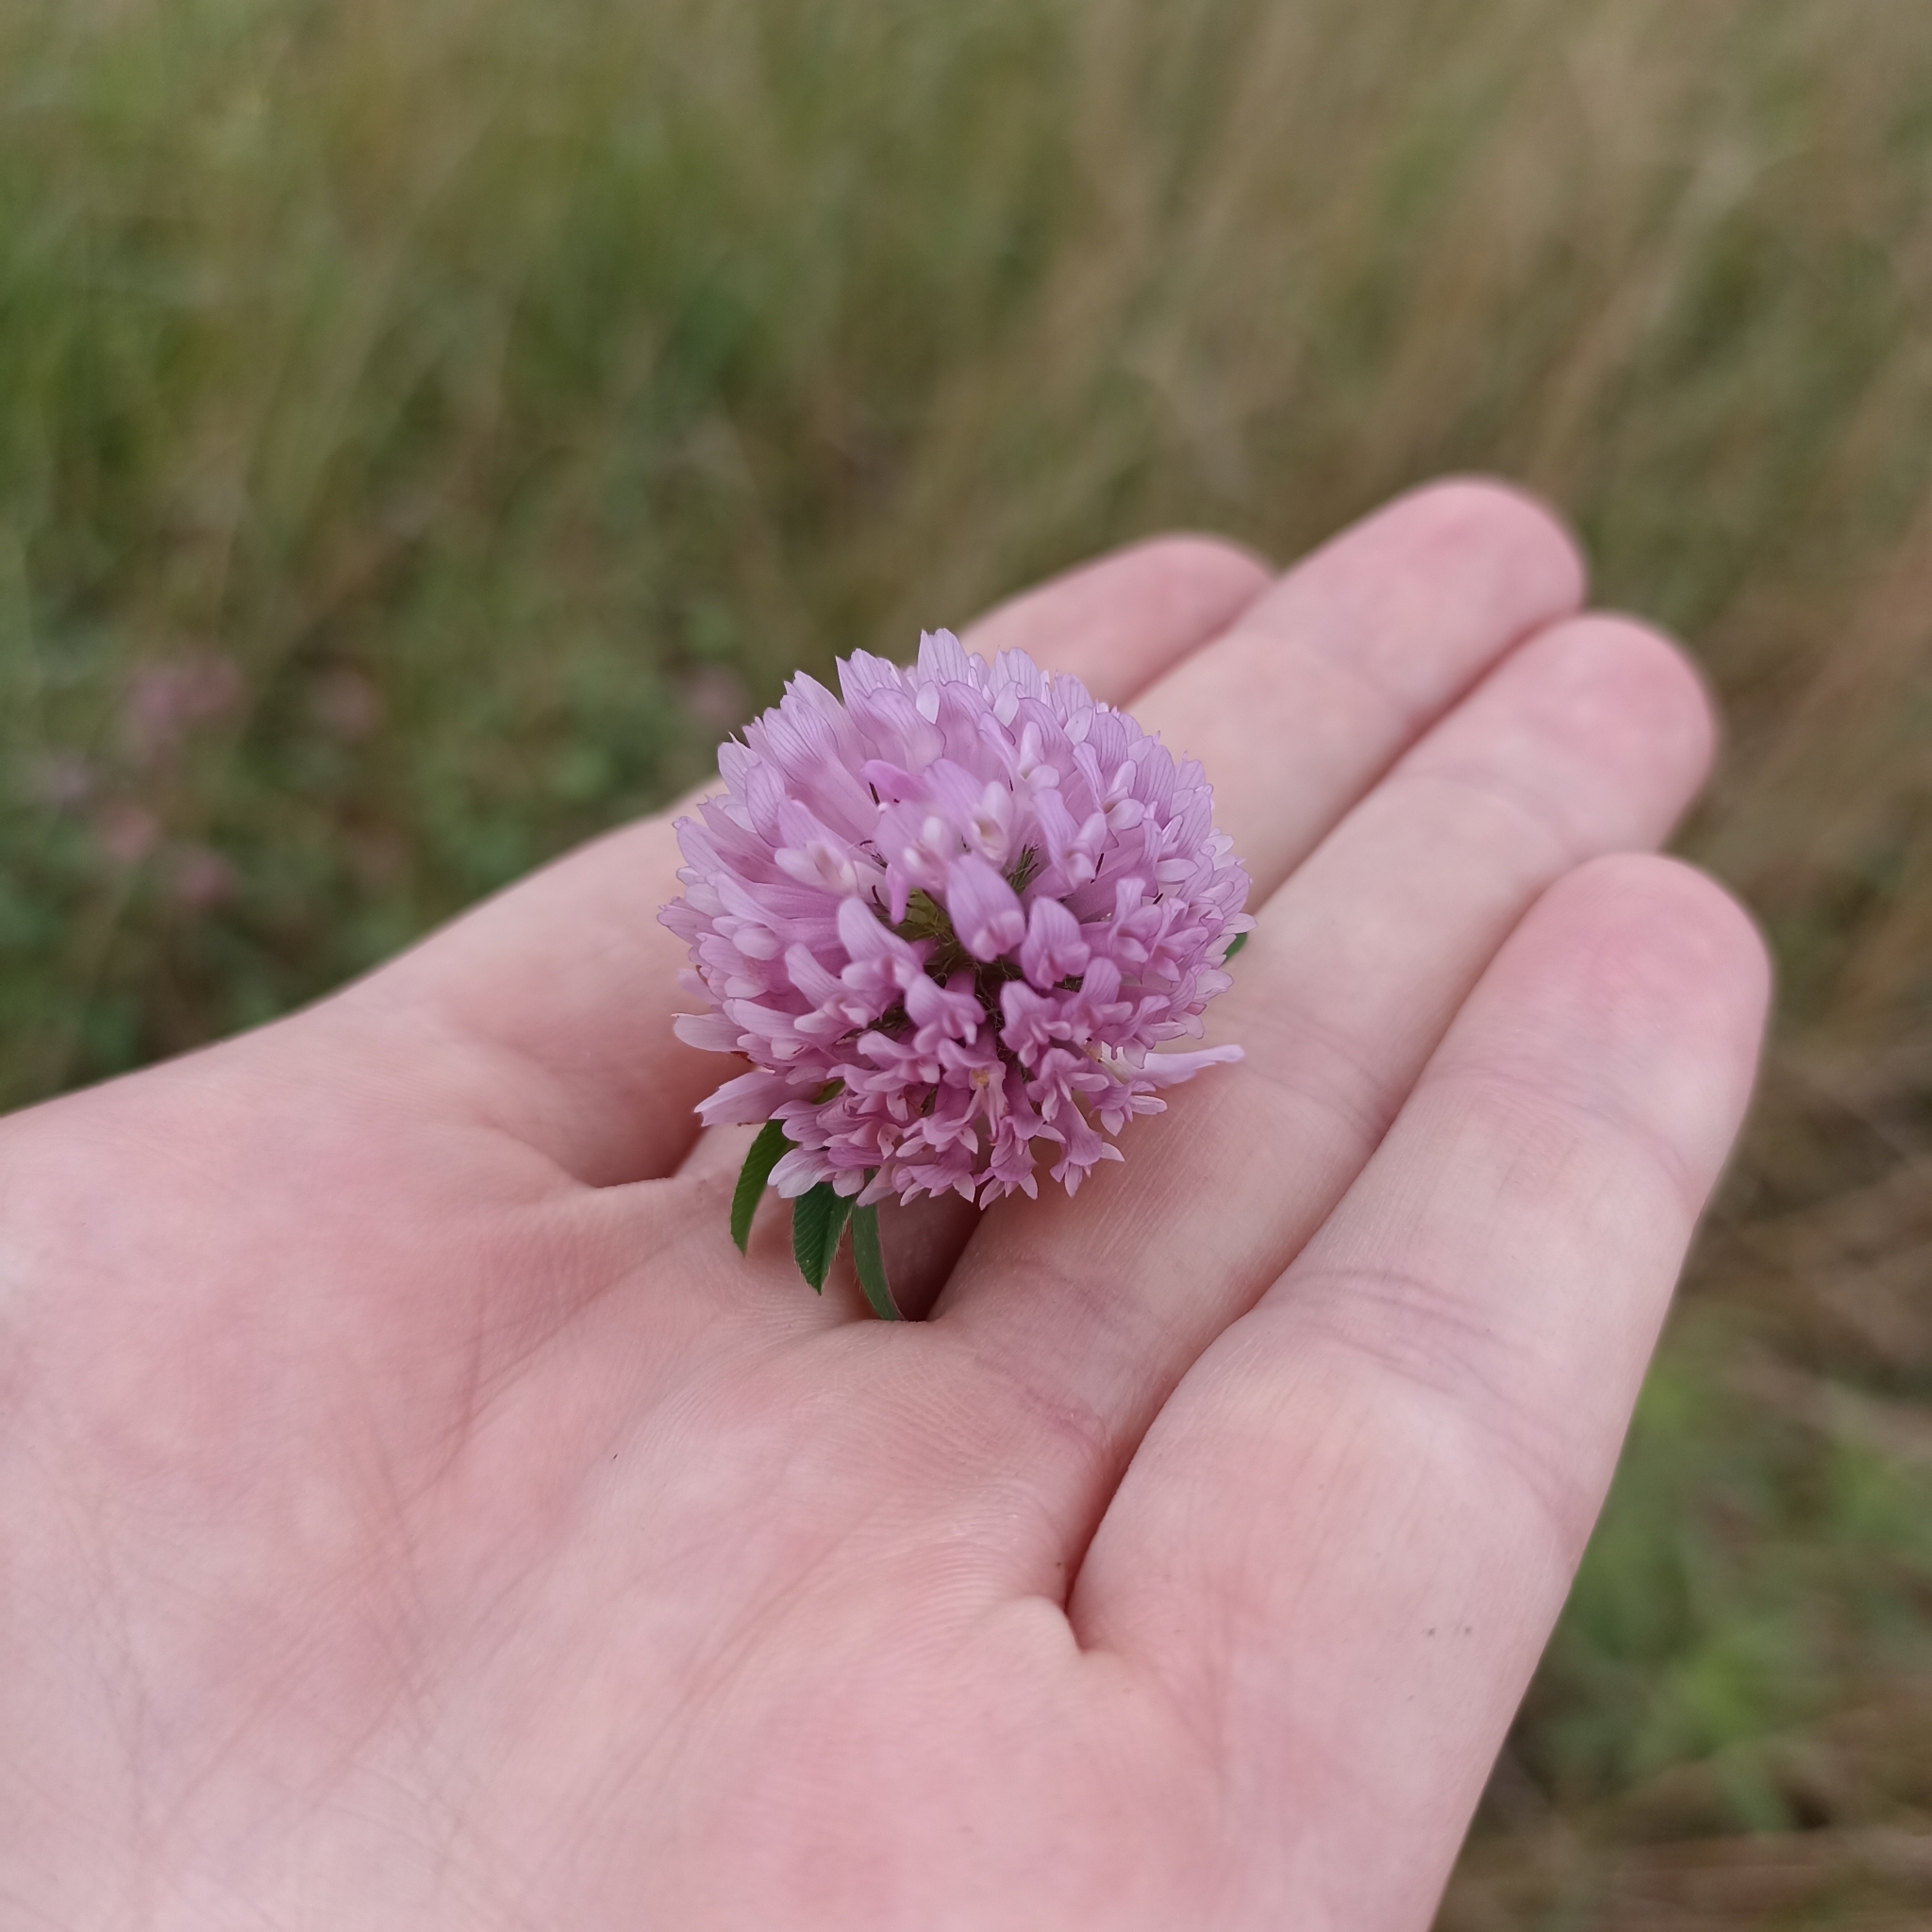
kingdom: Plantae
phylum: Tracheophyta
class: Magnoliopsida
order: Fabales
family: Fabaceae
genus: Trifolium
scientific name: Trifolium pratense
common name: Red clover
